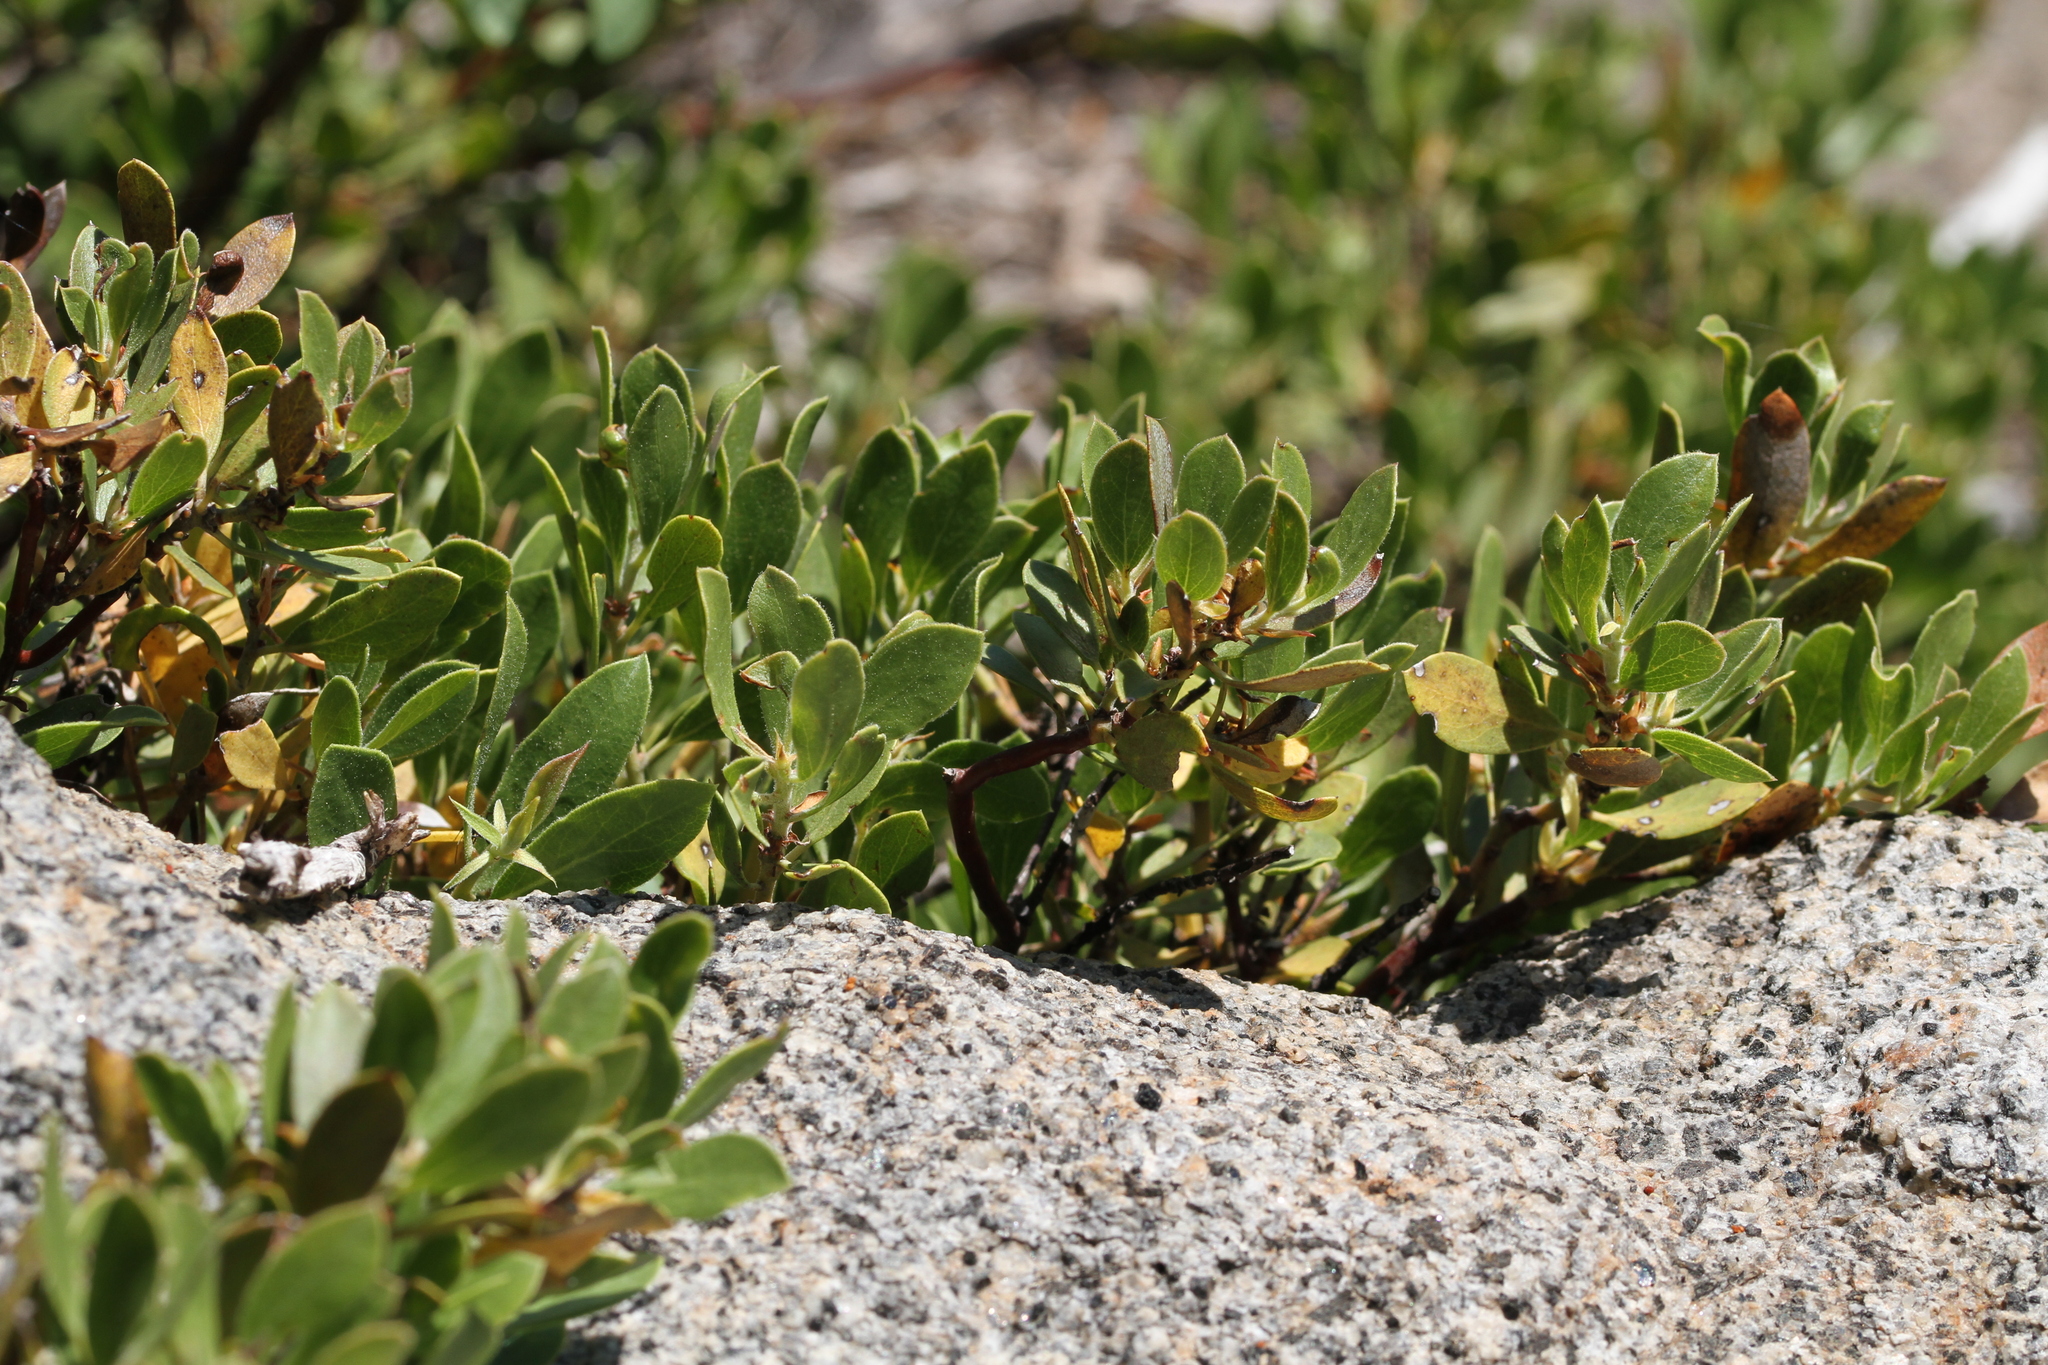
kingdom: Plantae
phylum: Tracheophyta
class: Magnoliopsida
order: Ericales
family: Ericaceae
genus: Arctostaphylos
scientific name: Arctostaphylos nevadensis
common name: Pinemat manzanita
